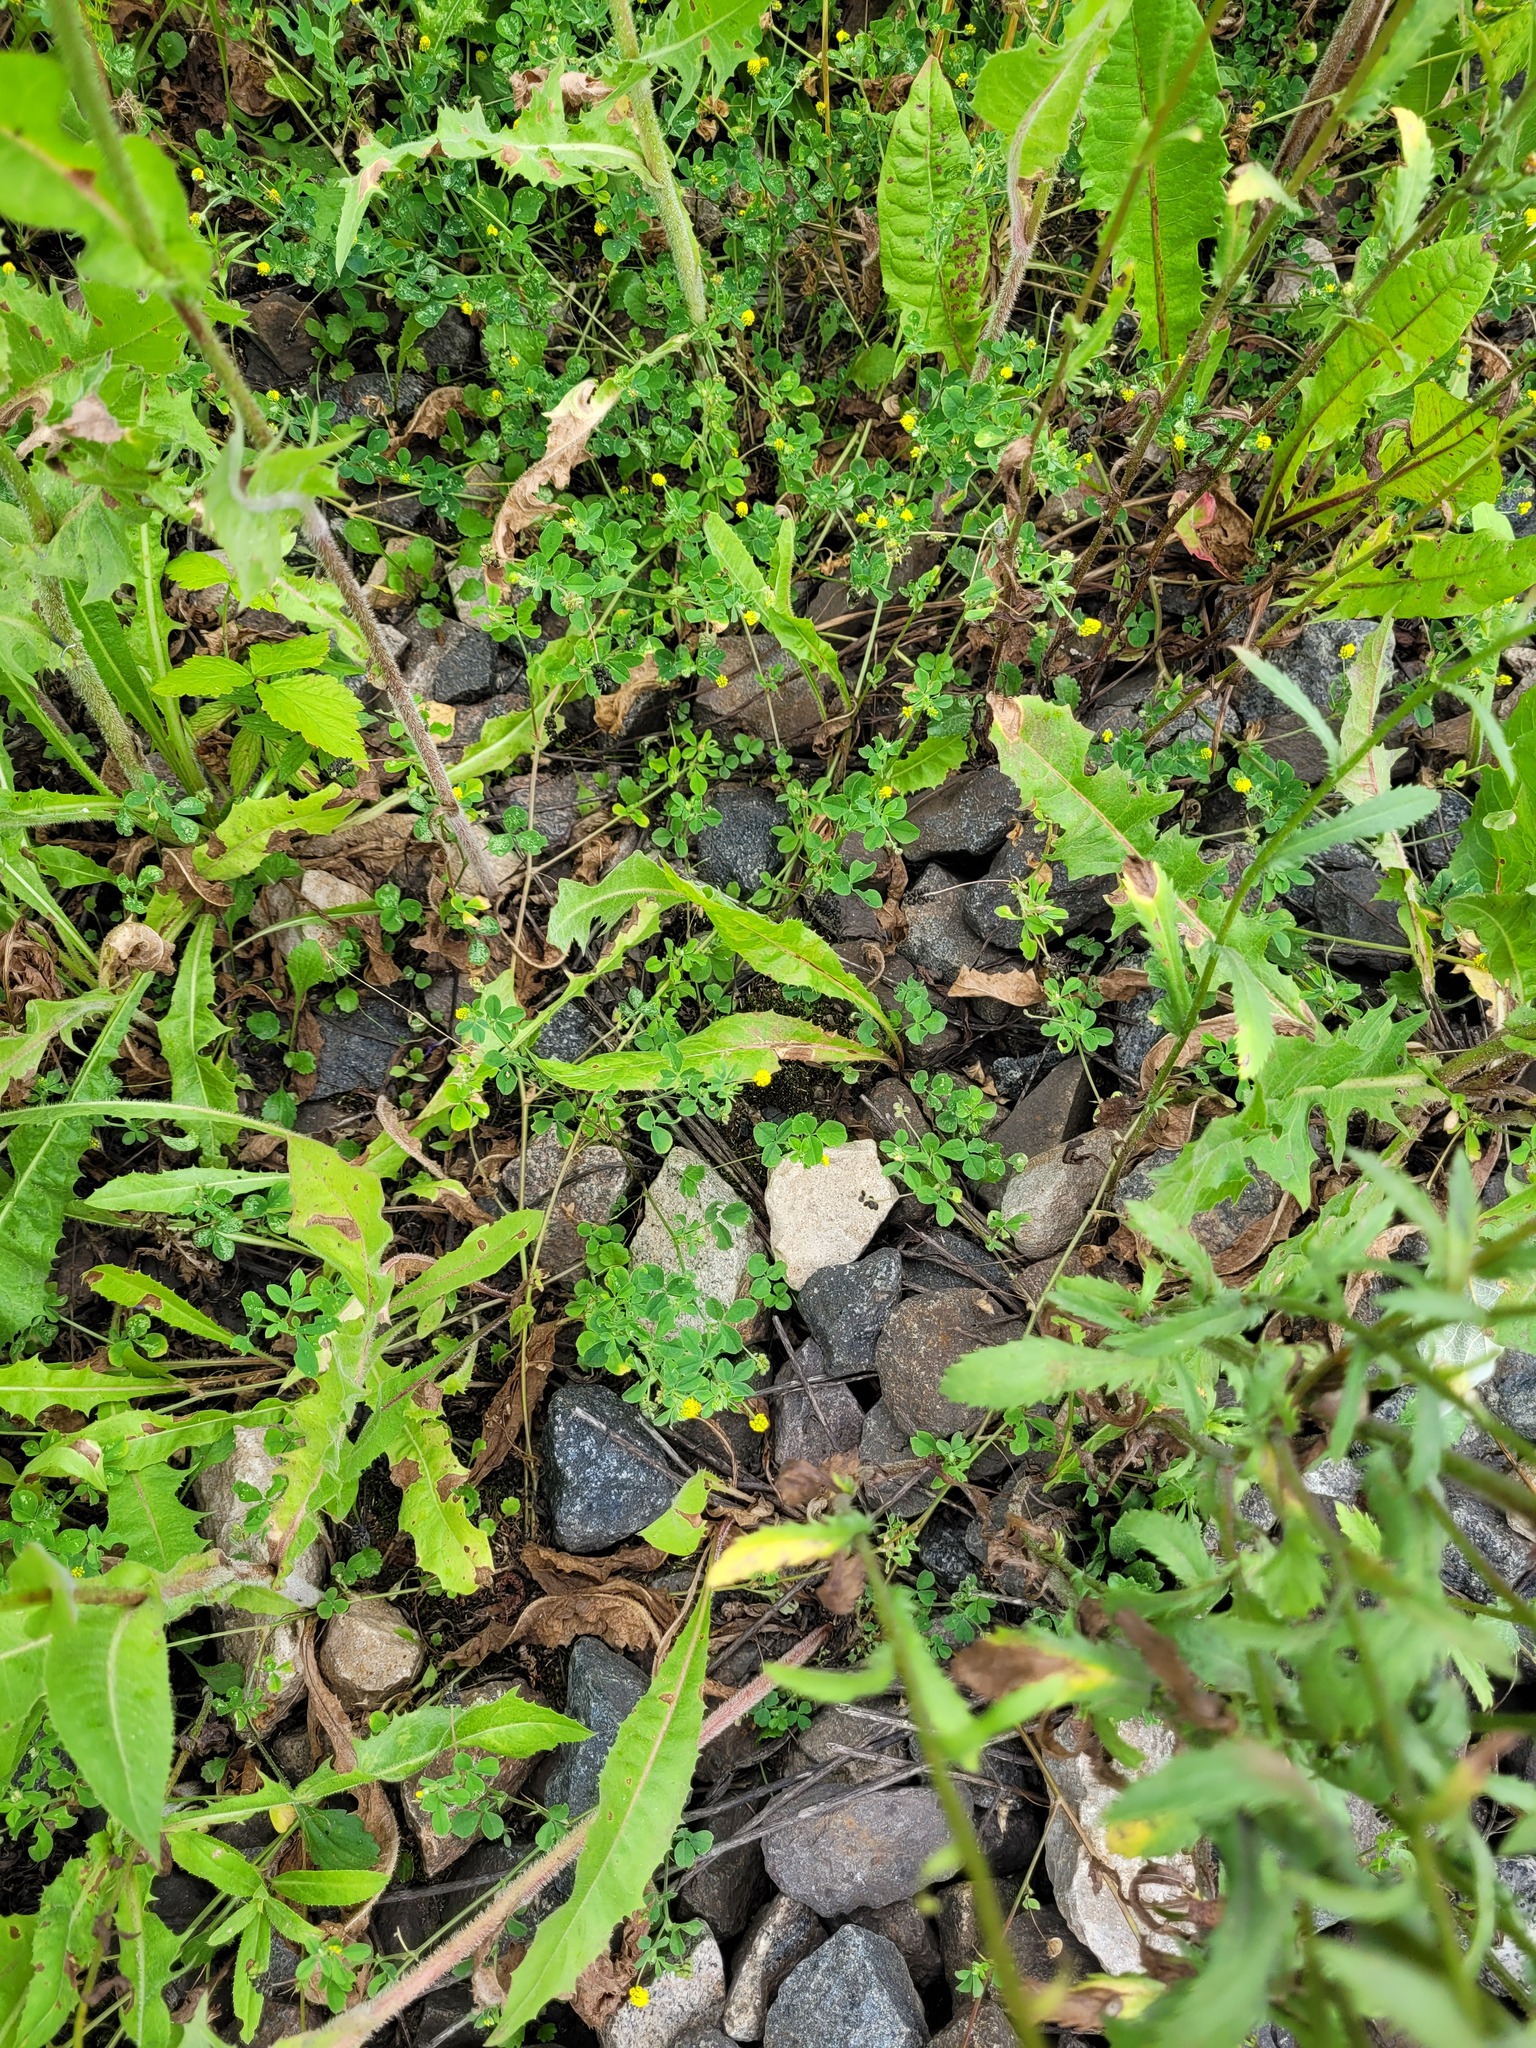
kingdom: Plantae
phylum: Tracheophyta
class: Magnoliopsida
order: Fabales
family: Fabaceae
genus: Medicago
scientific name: Medicago lupulina
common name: Black medick
